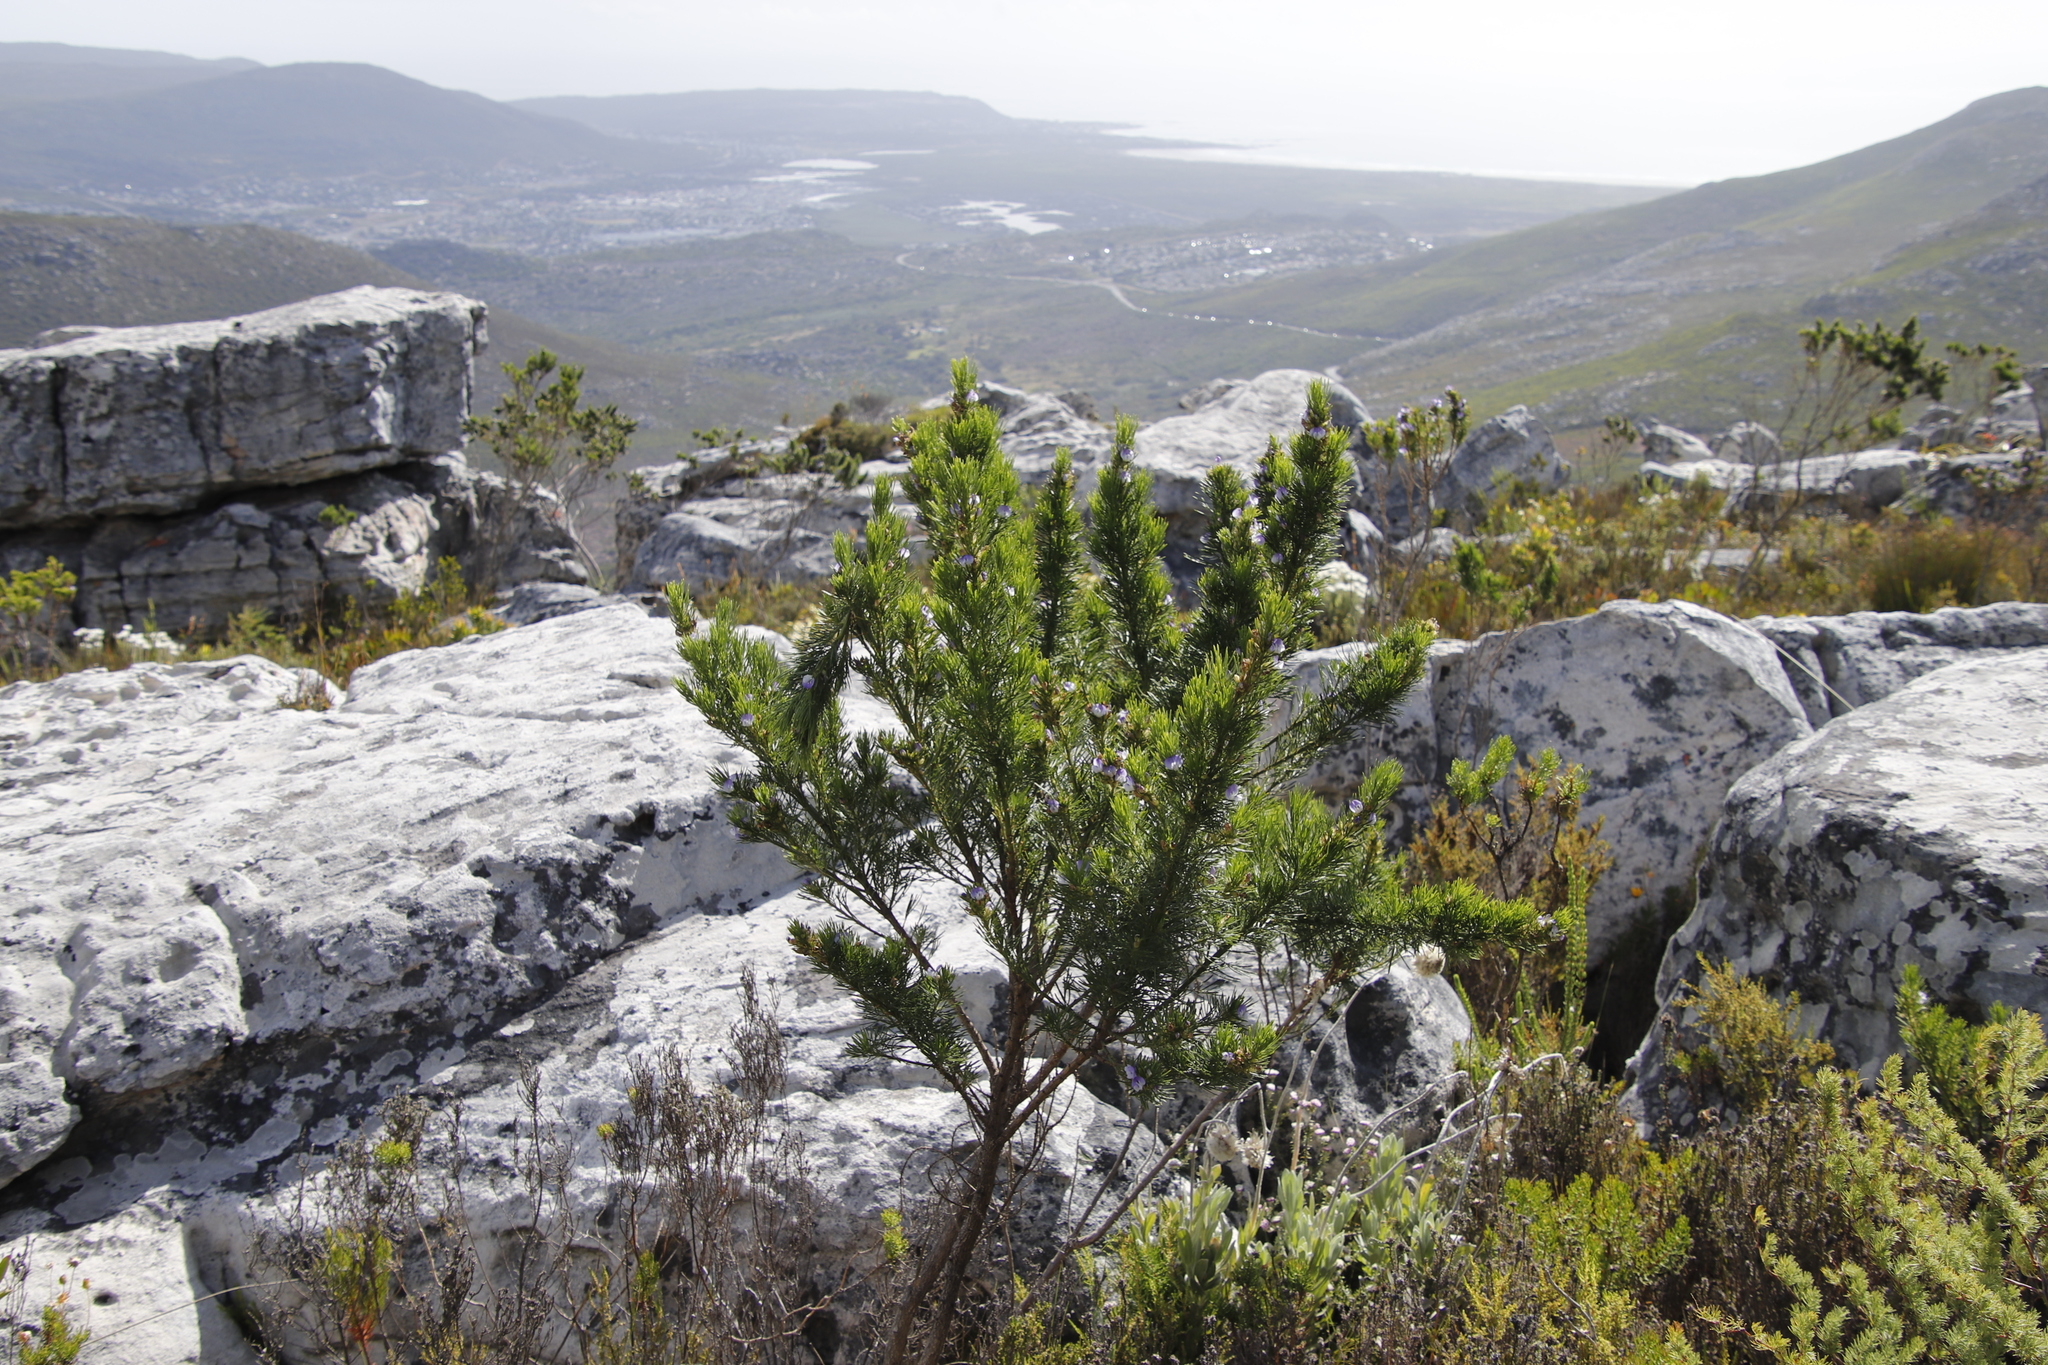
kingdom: Plantae
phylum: Tracheophyta
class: Magnoliopsida
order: Fabales
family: Fabaceae
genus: Psoralea
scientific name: Psoralea pinnata
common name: African scurfpea
